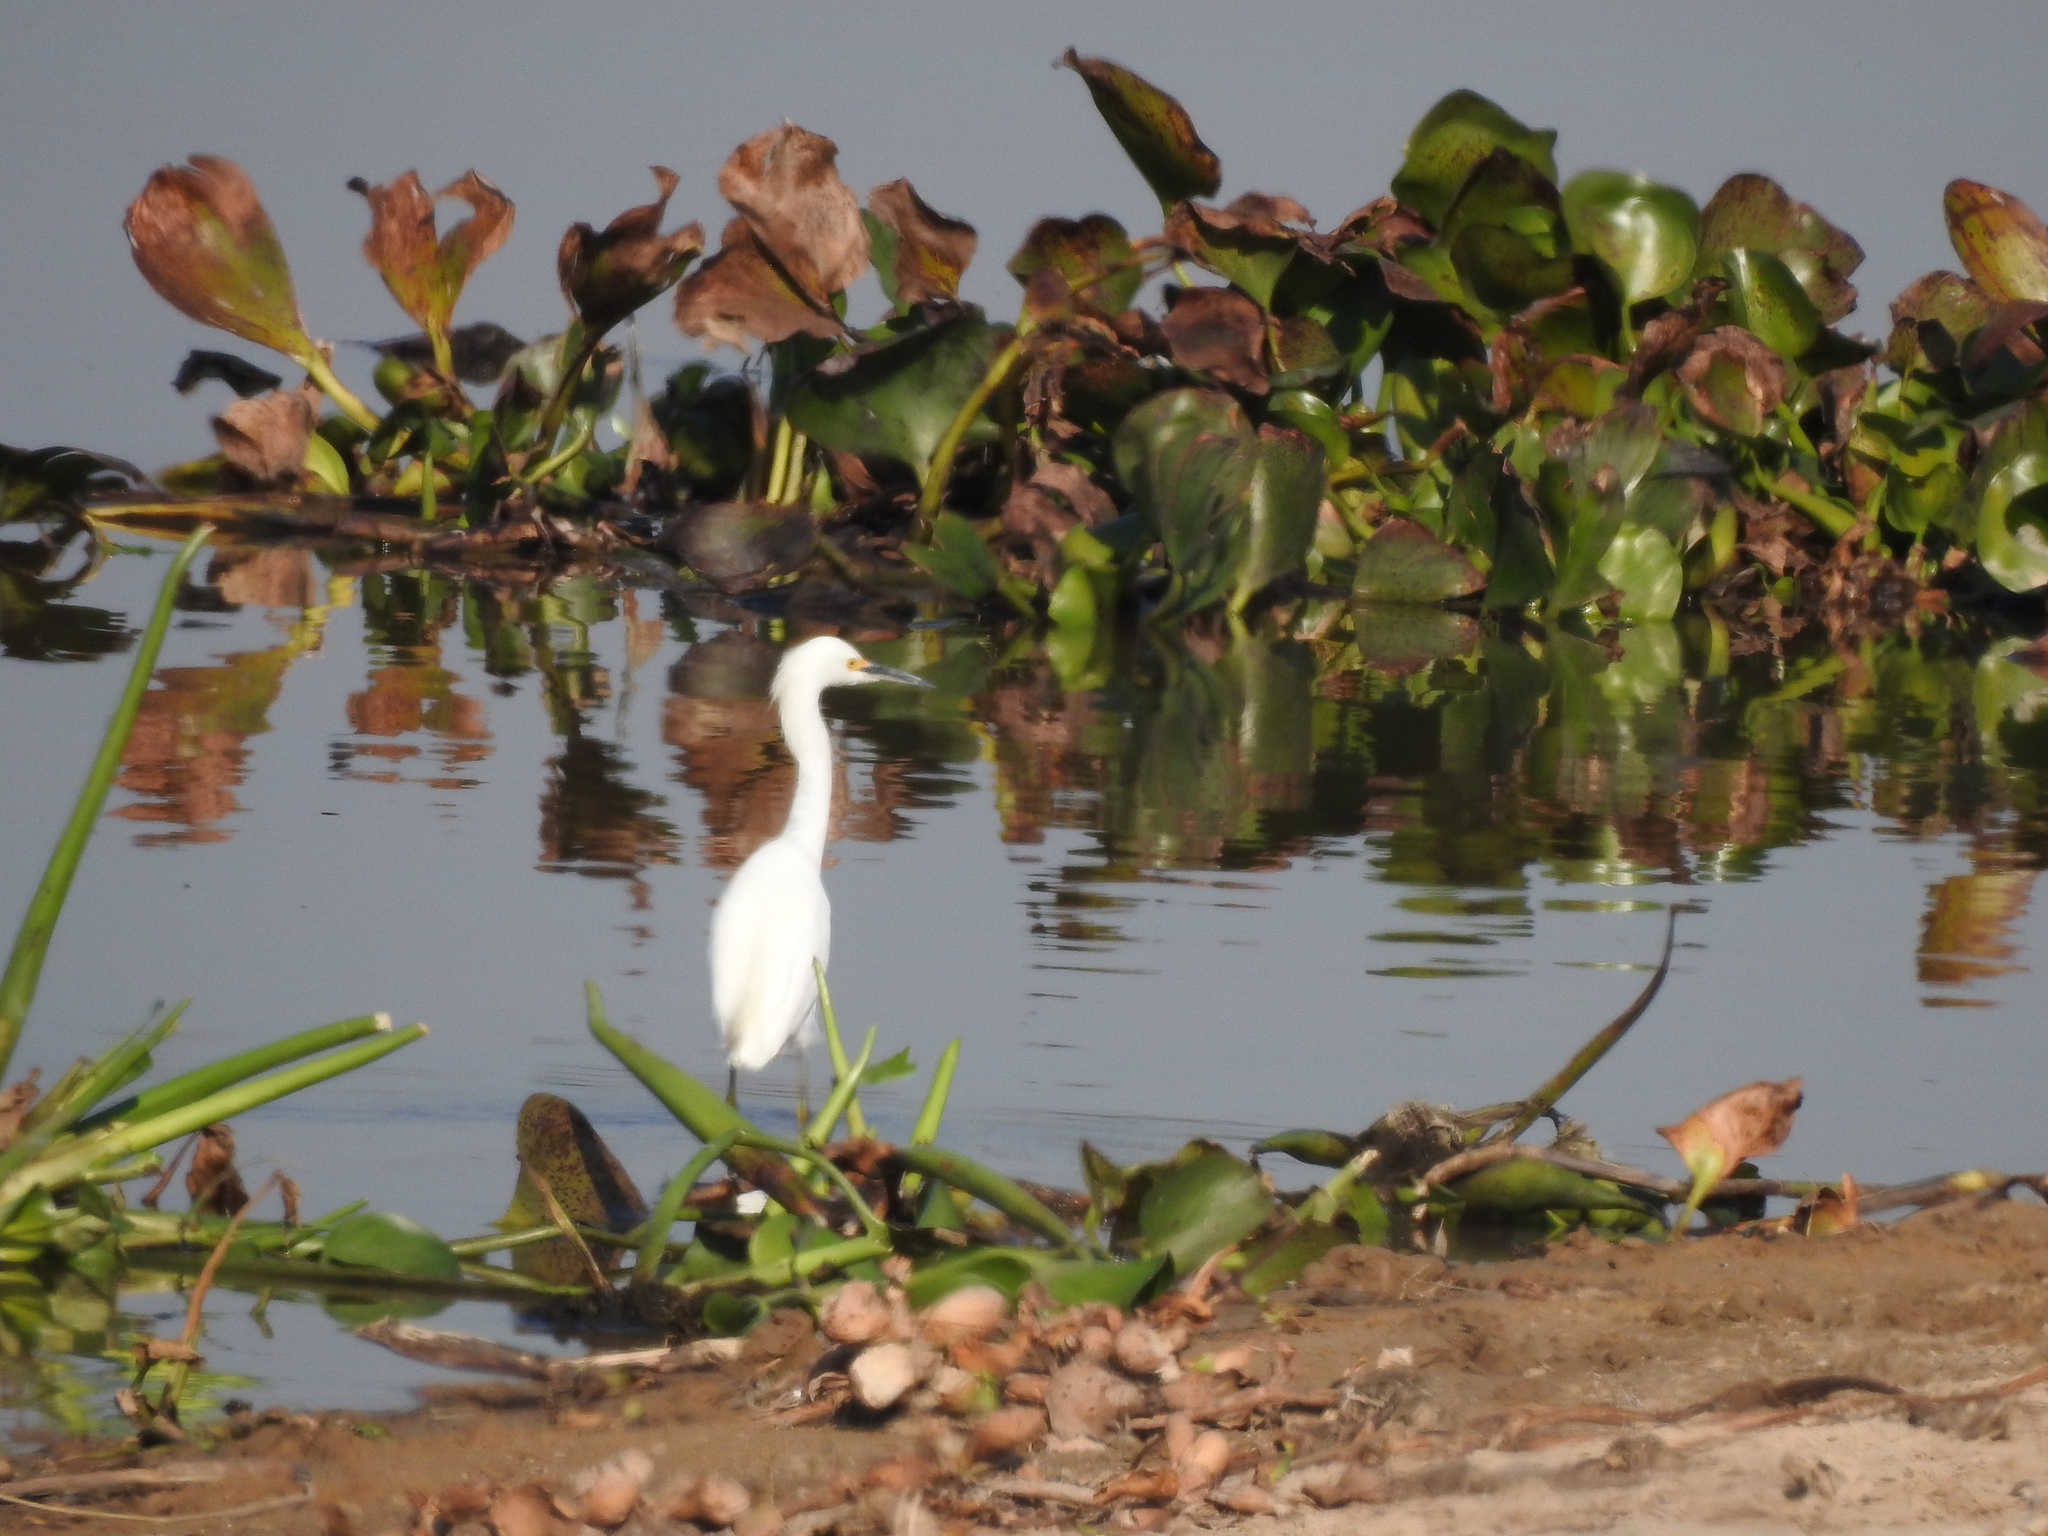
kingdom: Animalia
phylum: Chordata
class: Aves
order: Pelecaniformes
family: Ardeidae
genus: Egretta
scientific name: Egretta thula
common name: Snowy egret
